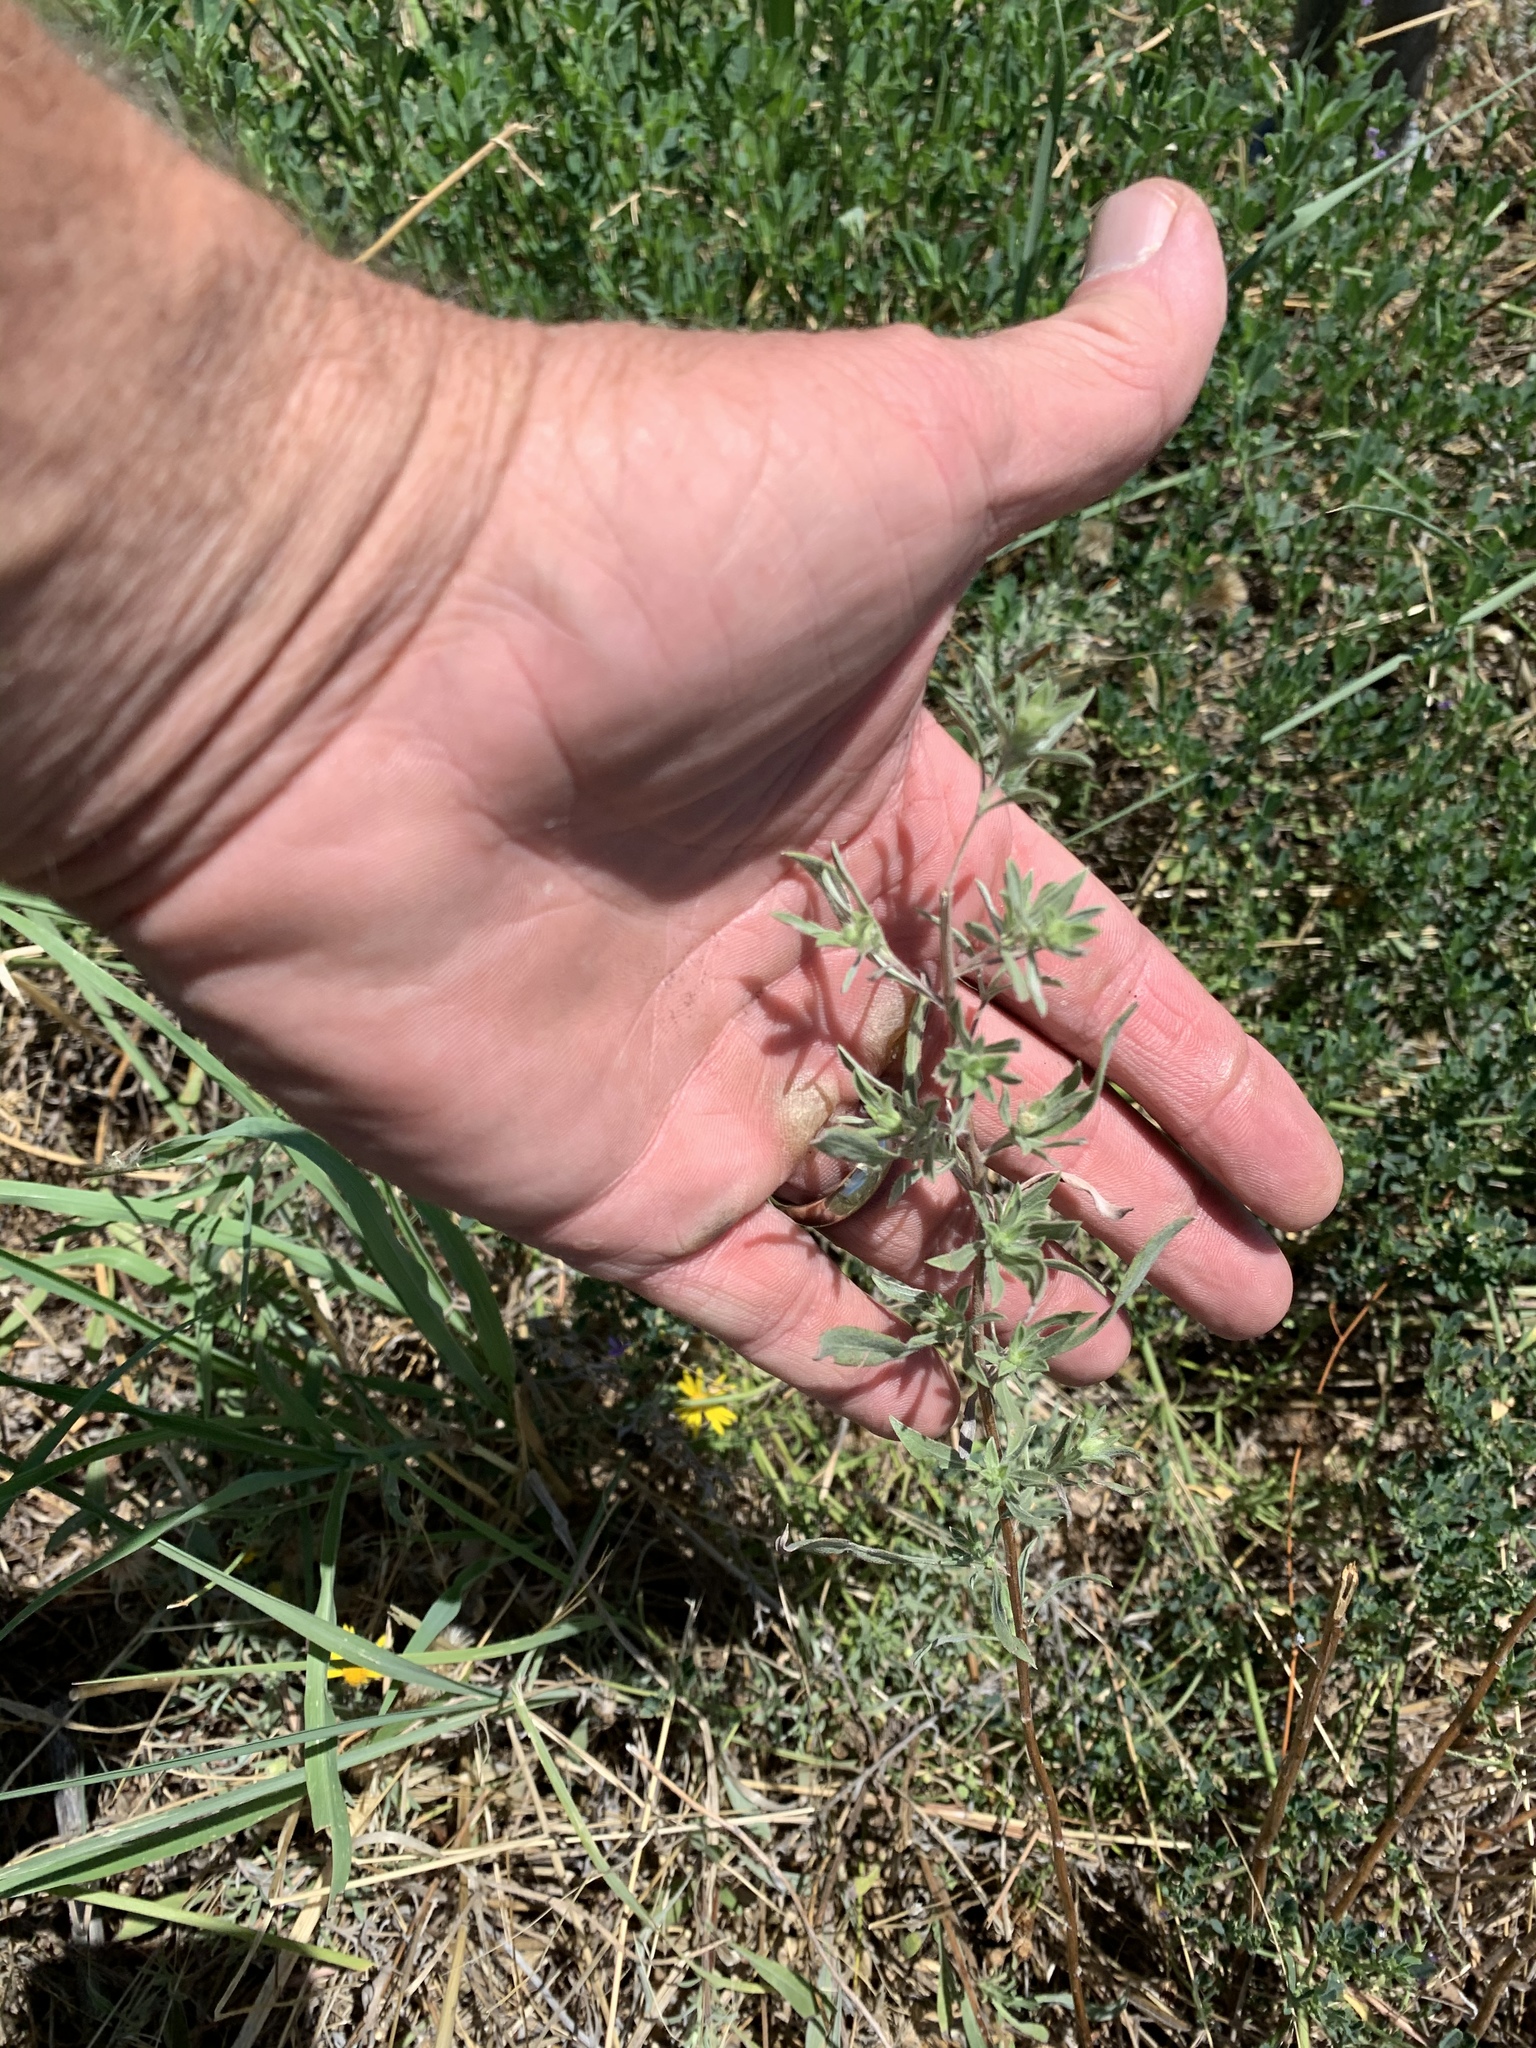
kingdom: Plantae
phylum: Tracheophyta
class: Magnoliopsida
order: Asterales
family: Asteraceae
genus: Heterotheca
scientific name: Heterotheca canescens
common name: Hoary golden-aster
